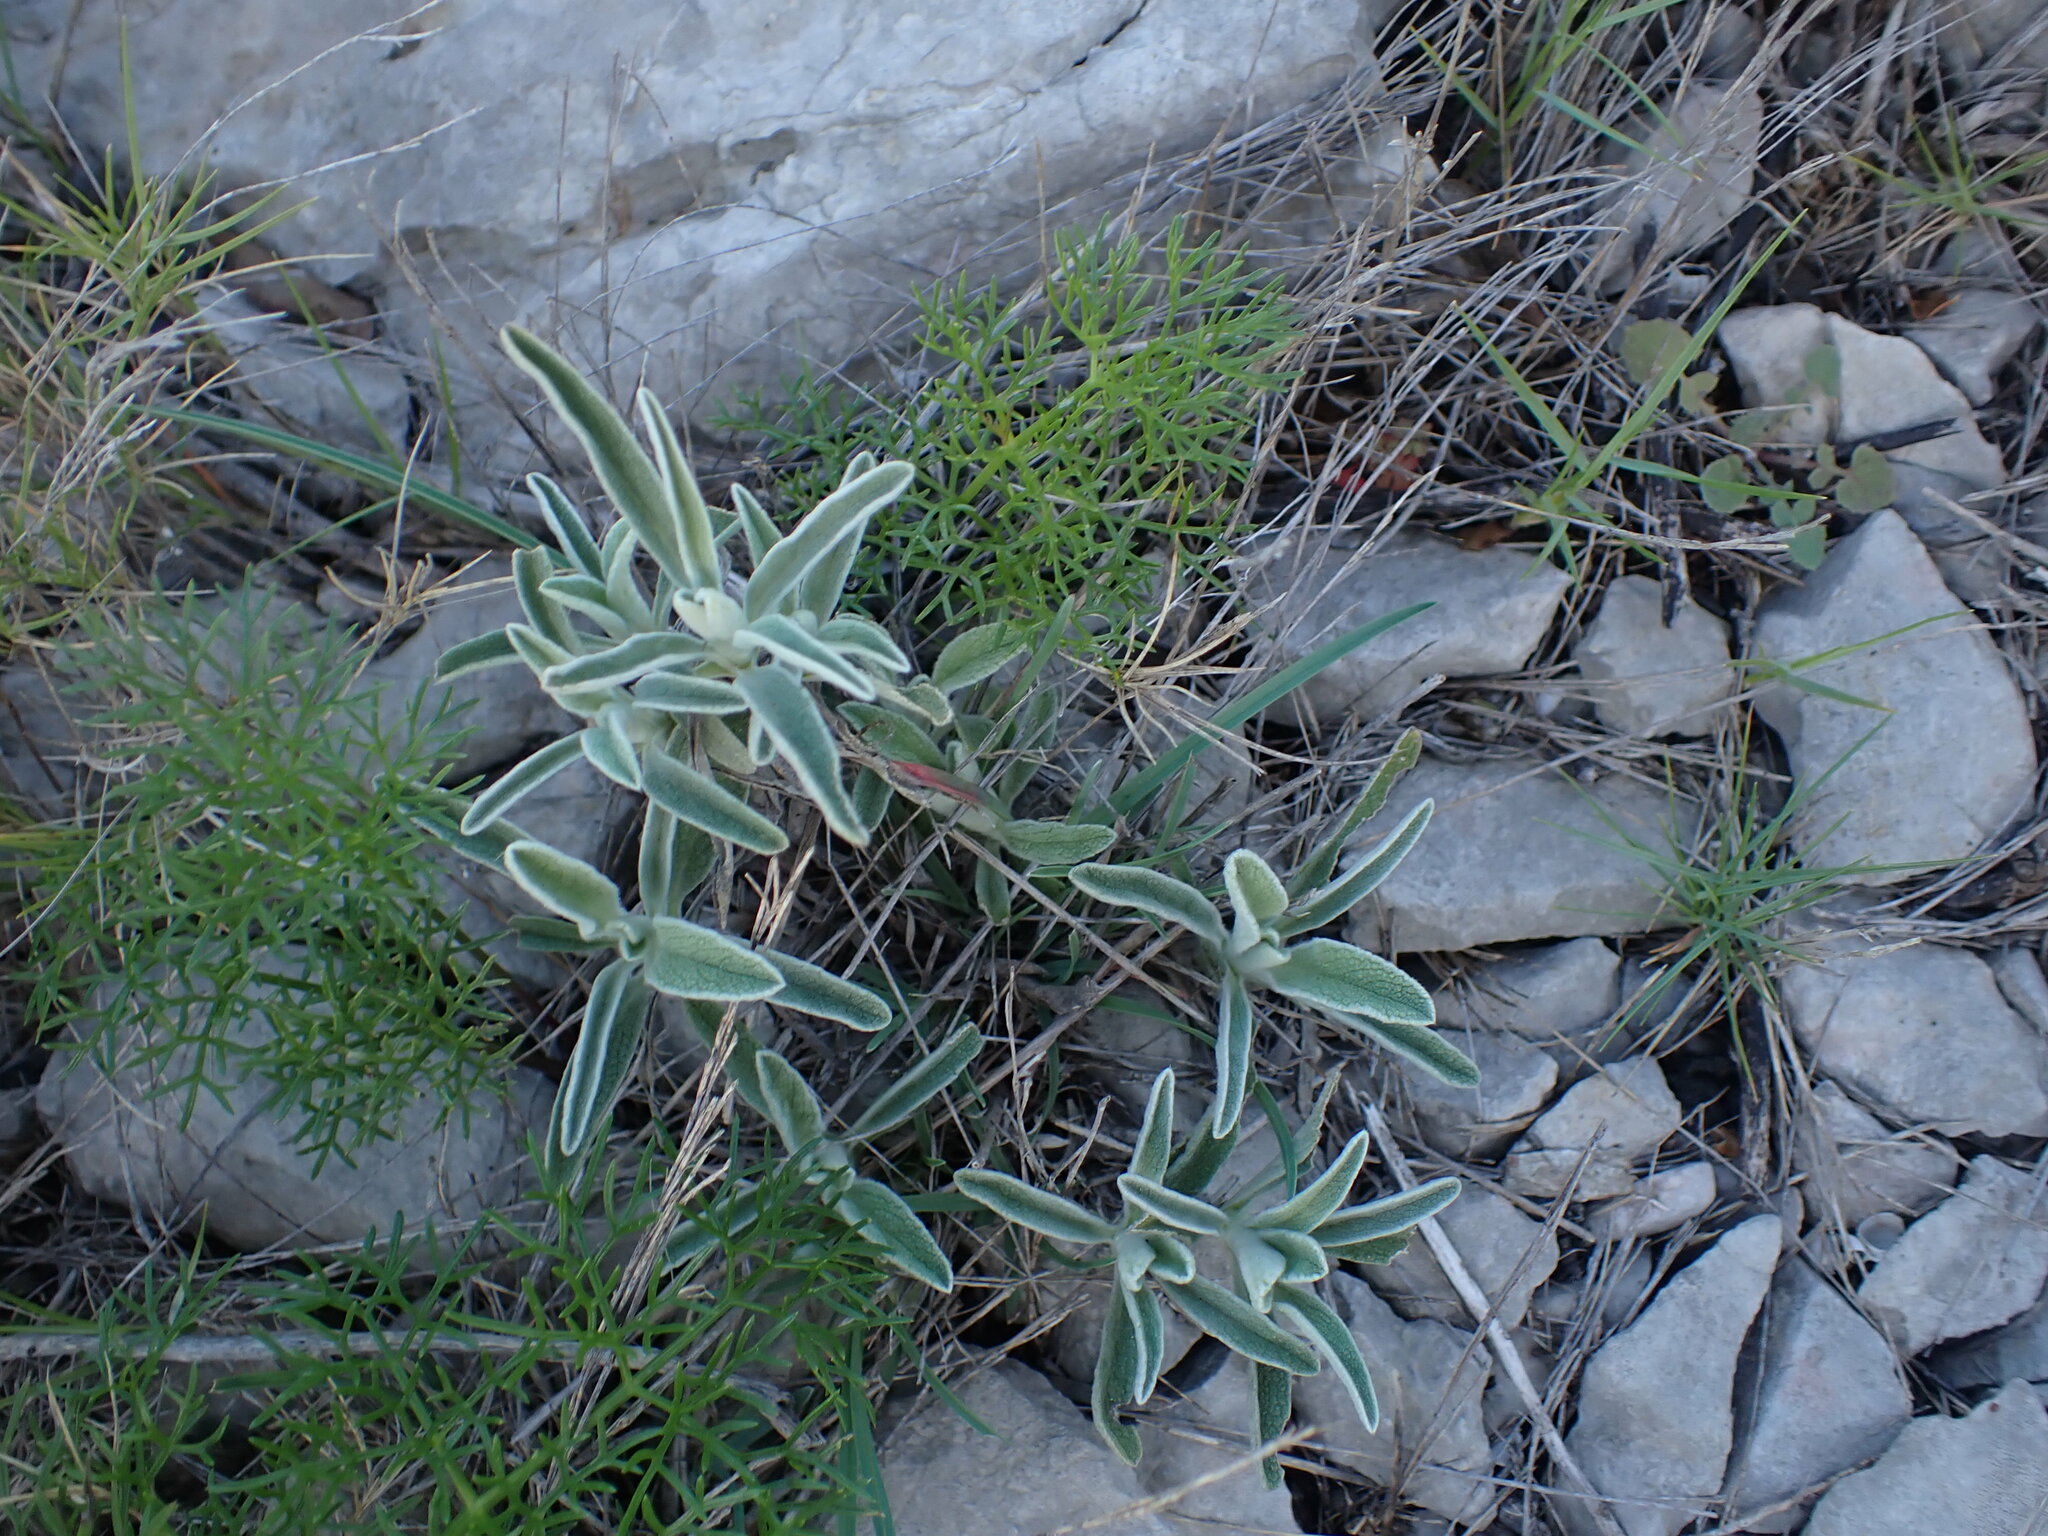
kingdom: Plantae
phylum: Tracheophyta
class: Magnoliopsida
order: Lamiales
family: Lamiaceae
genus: Phlomis
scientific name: Phlomis lychnitis
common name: Lampwickplant
